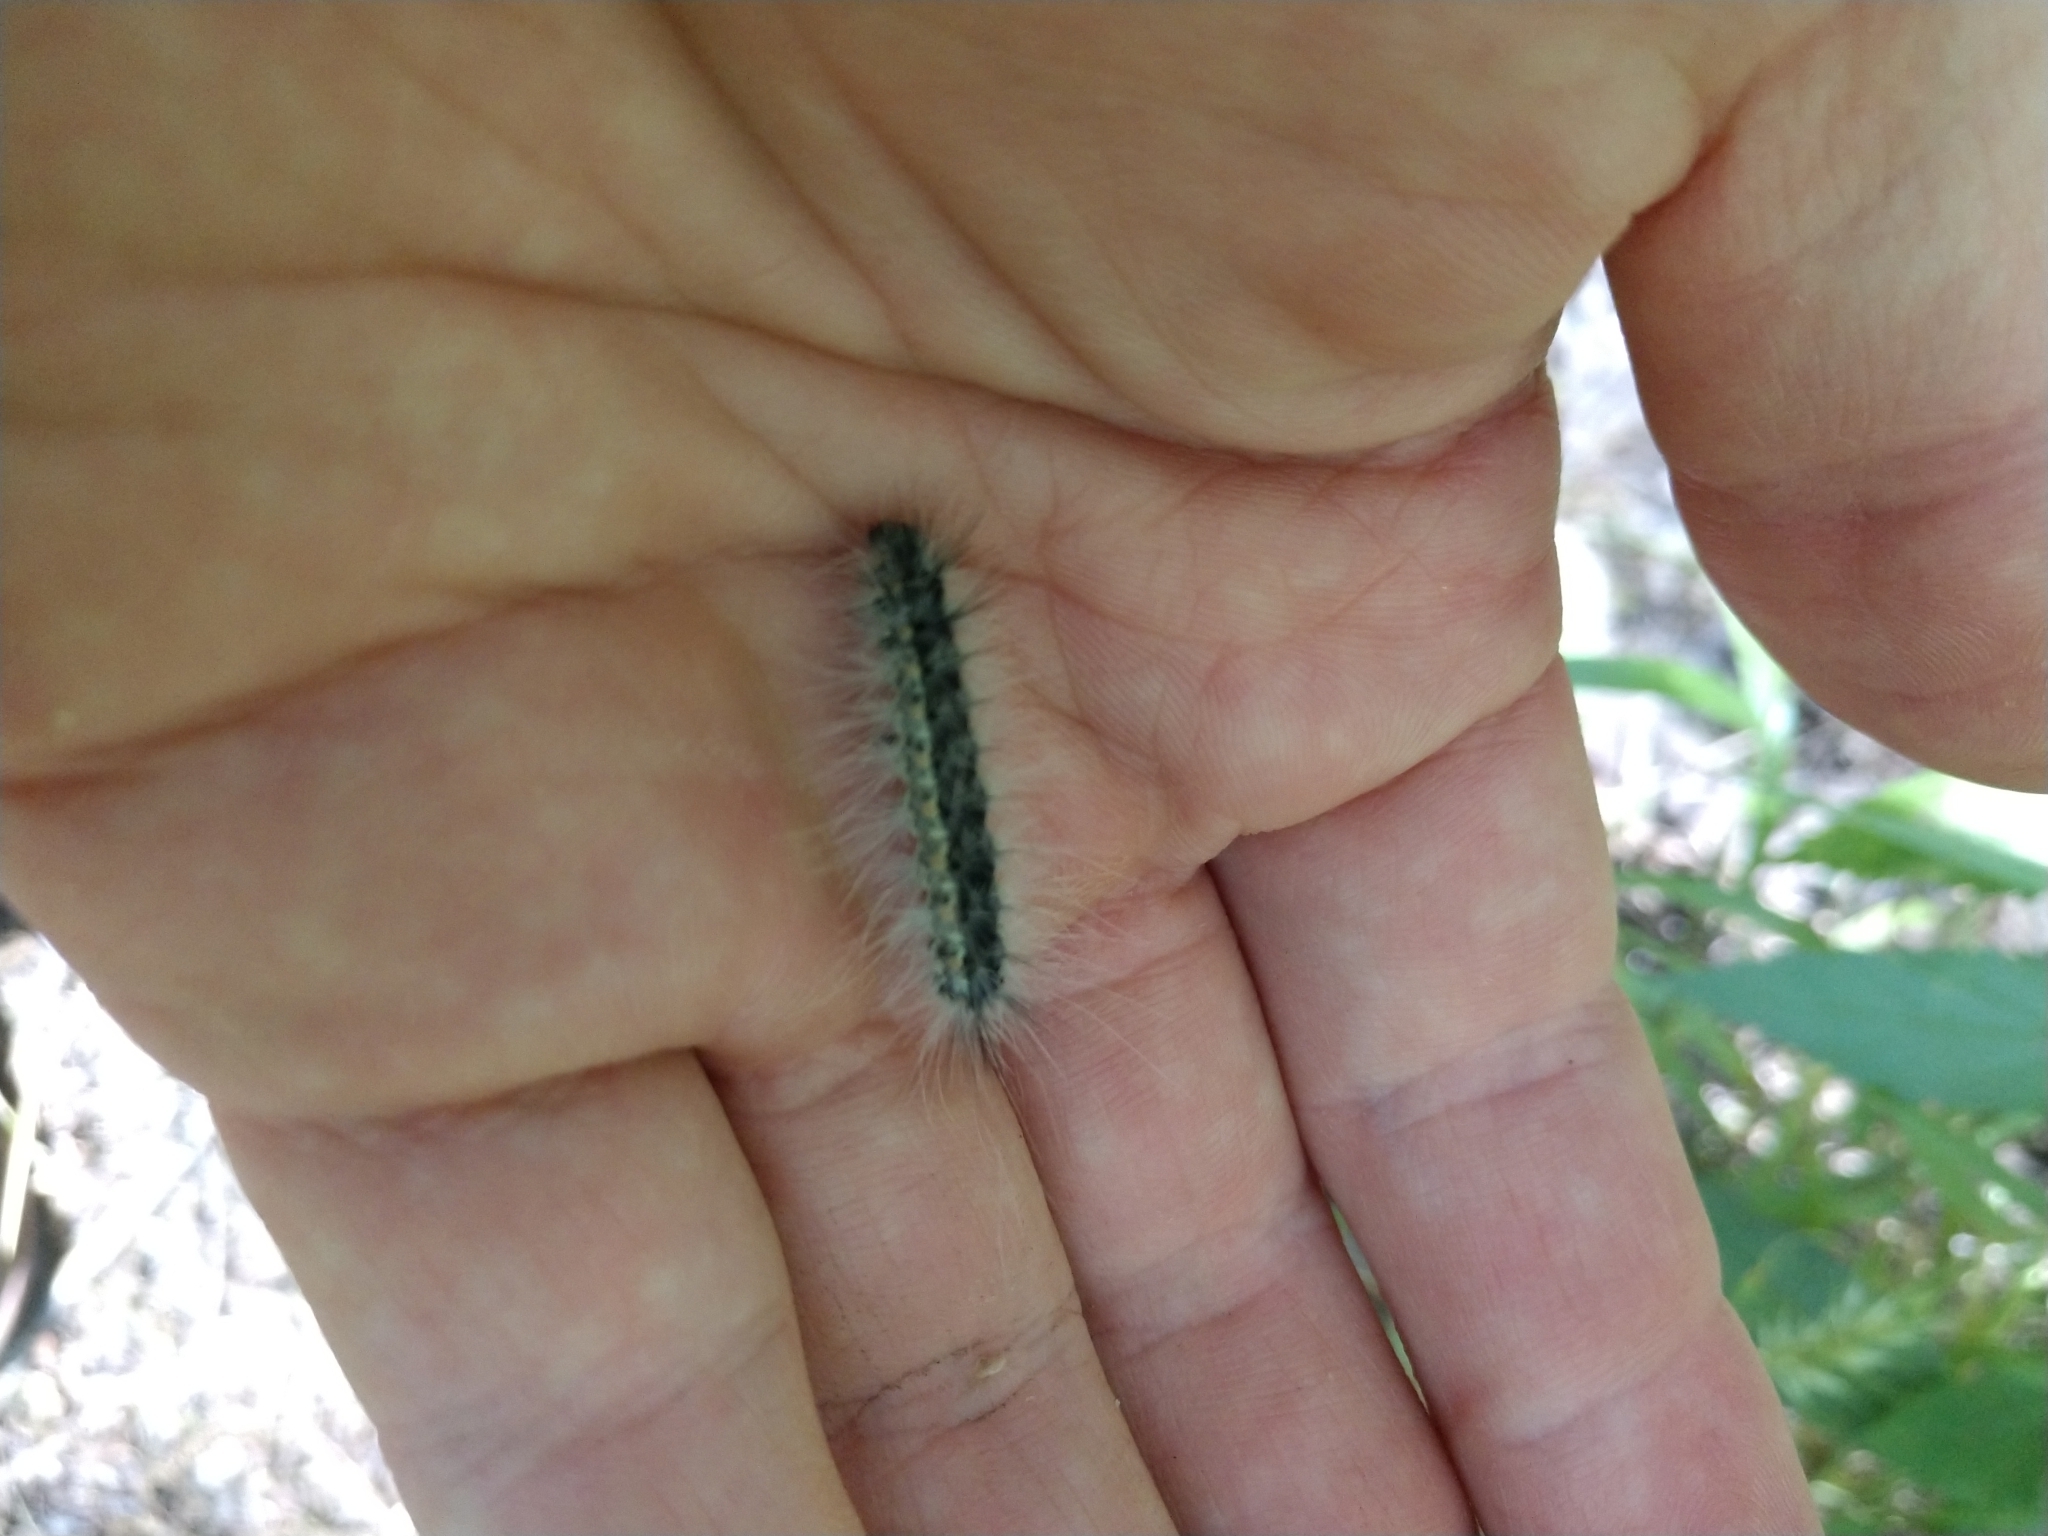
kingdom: Animalia
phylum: Arthropoda
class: Insecta
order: Lepidoptera
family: Erebidae
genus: Hyphantria
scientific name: Hyphantria cunea
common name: American white moth
